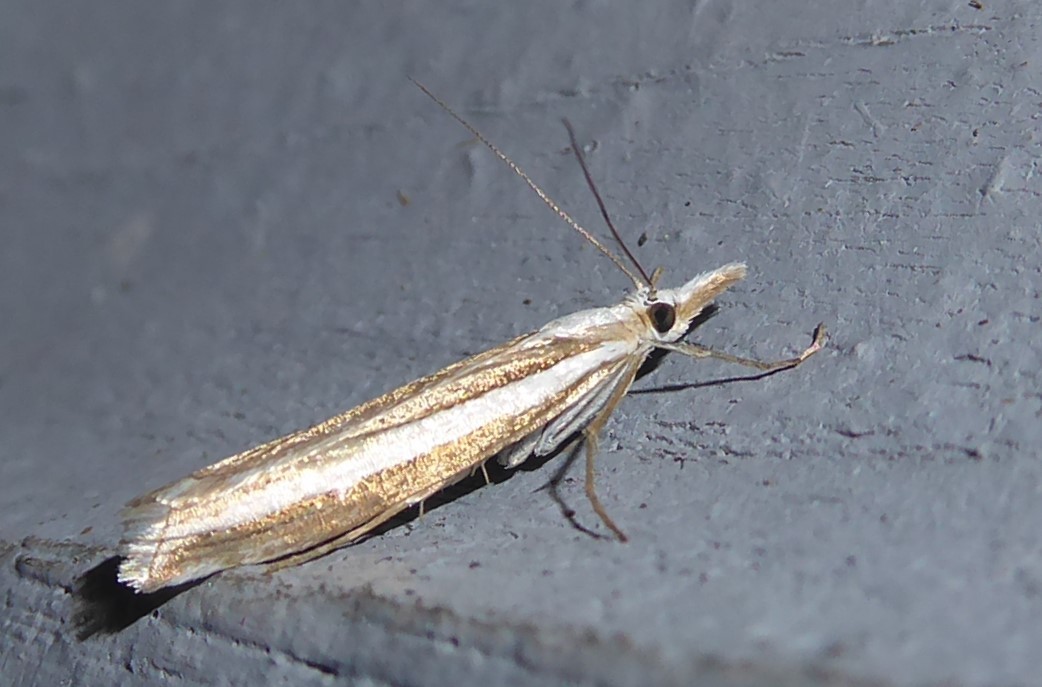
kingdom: Animalia
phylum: Arthropoda
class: Insecta
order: Lepidoptera
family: Crambidae
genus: Orocrambus
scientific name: Orocrambus vittellus
